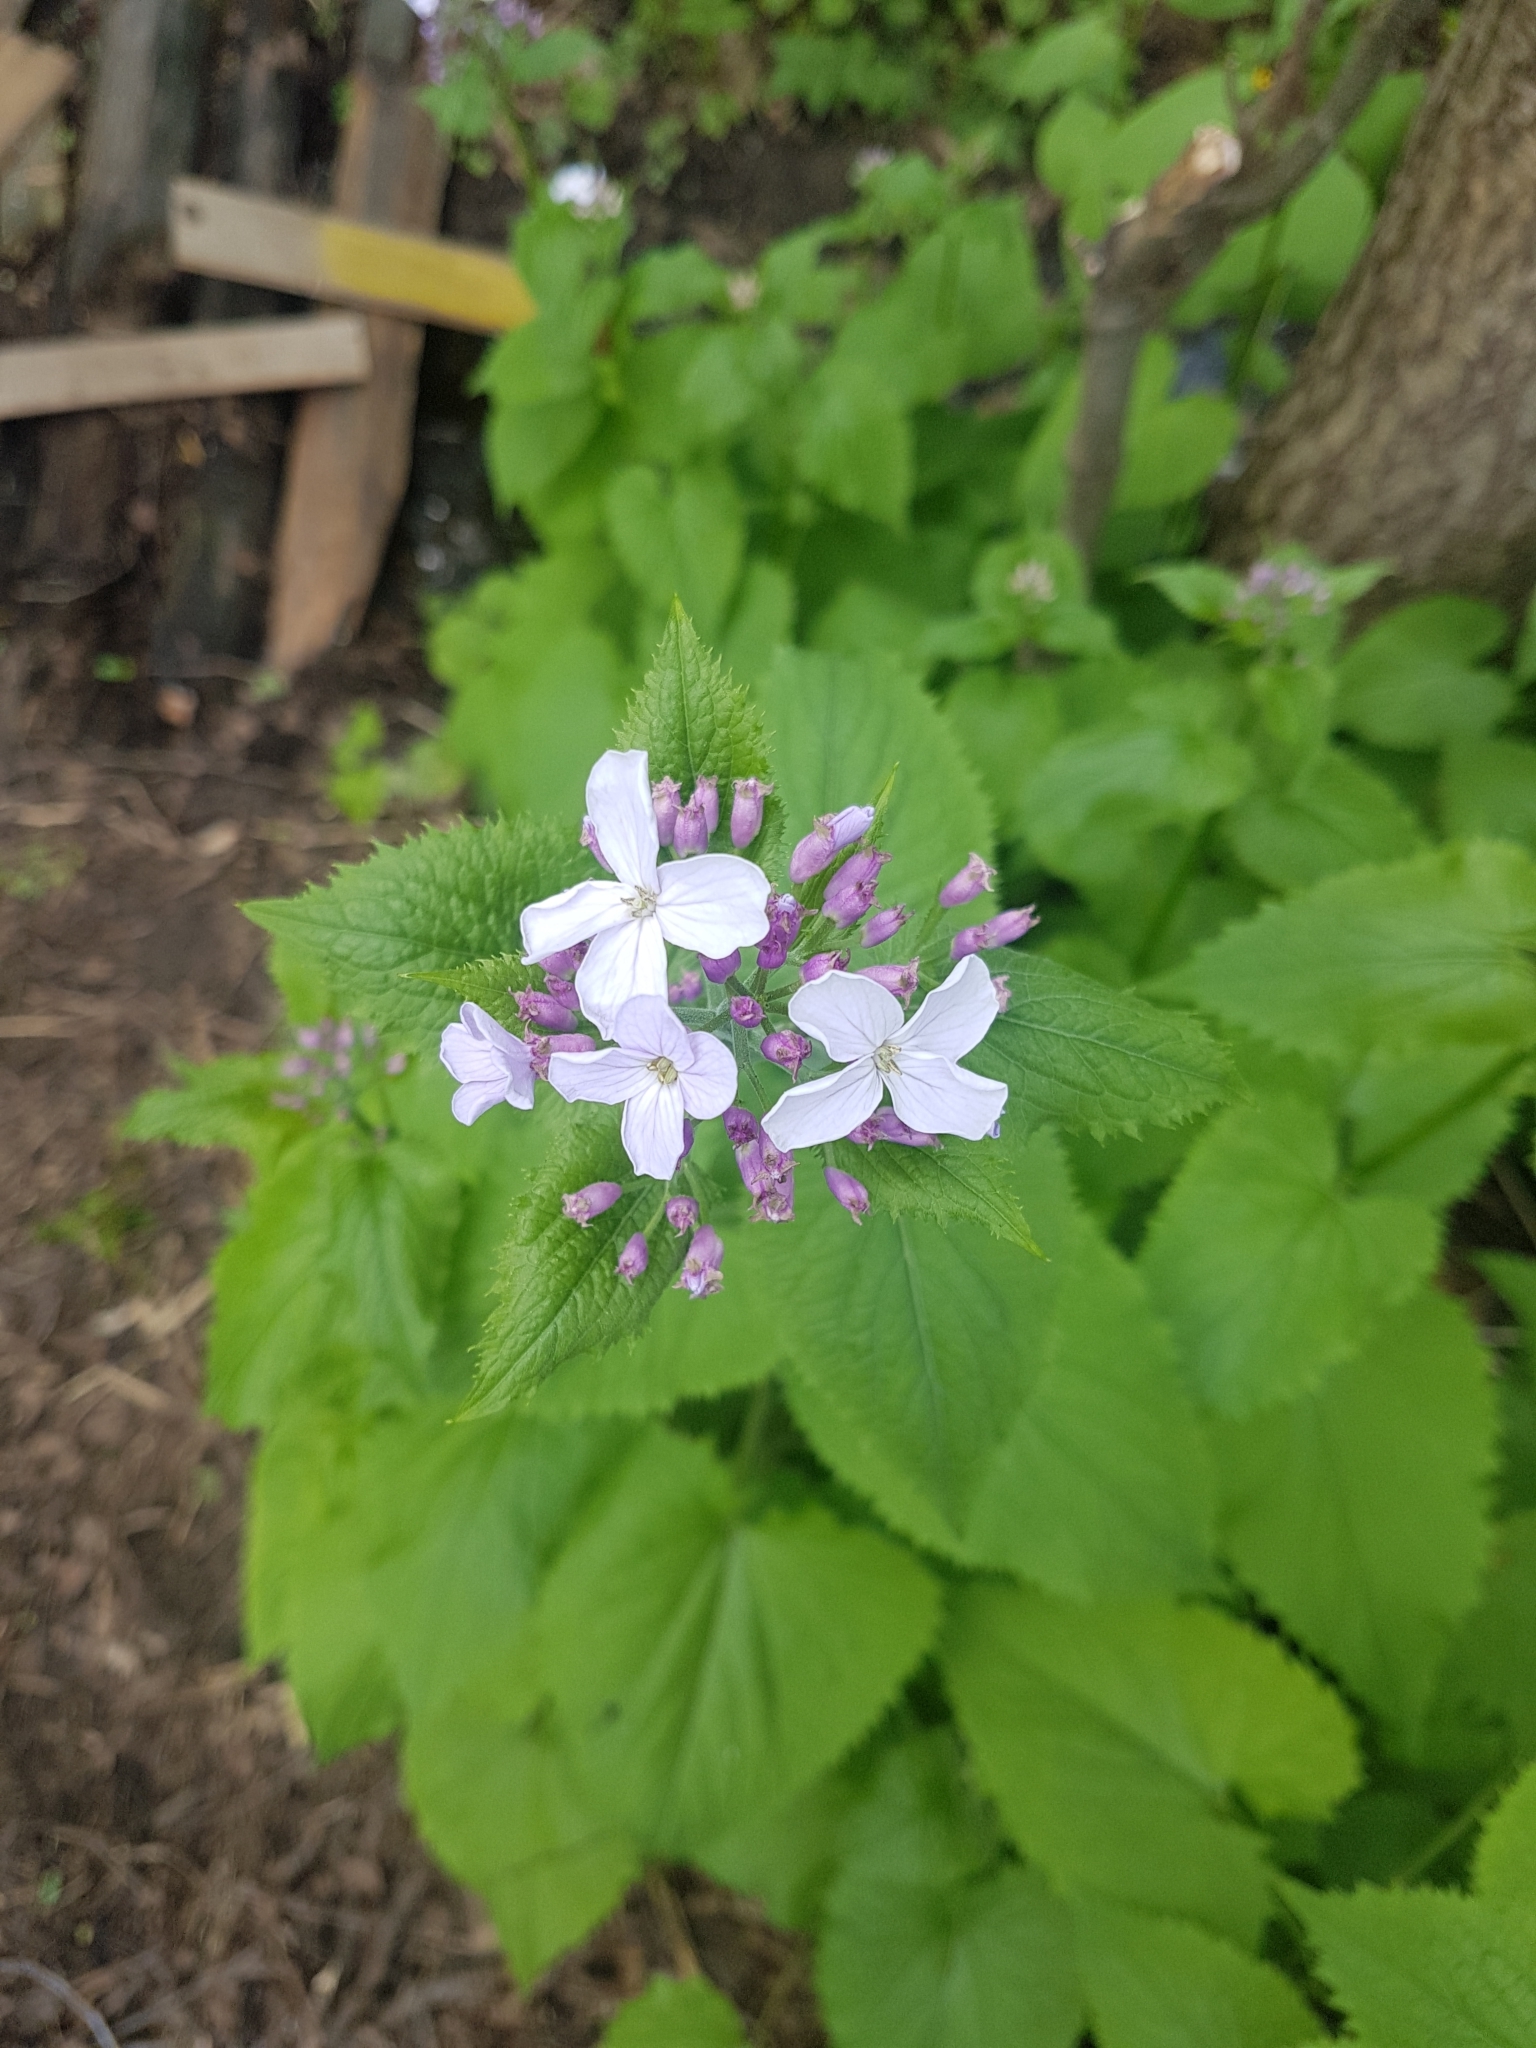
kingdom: Plantae
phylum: Tracheophyta
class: Magnoliopsida
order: Brassicales
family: Brassicaceae
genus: Lunaria
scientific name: Lunaria rediviva
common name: Perennial honesty
